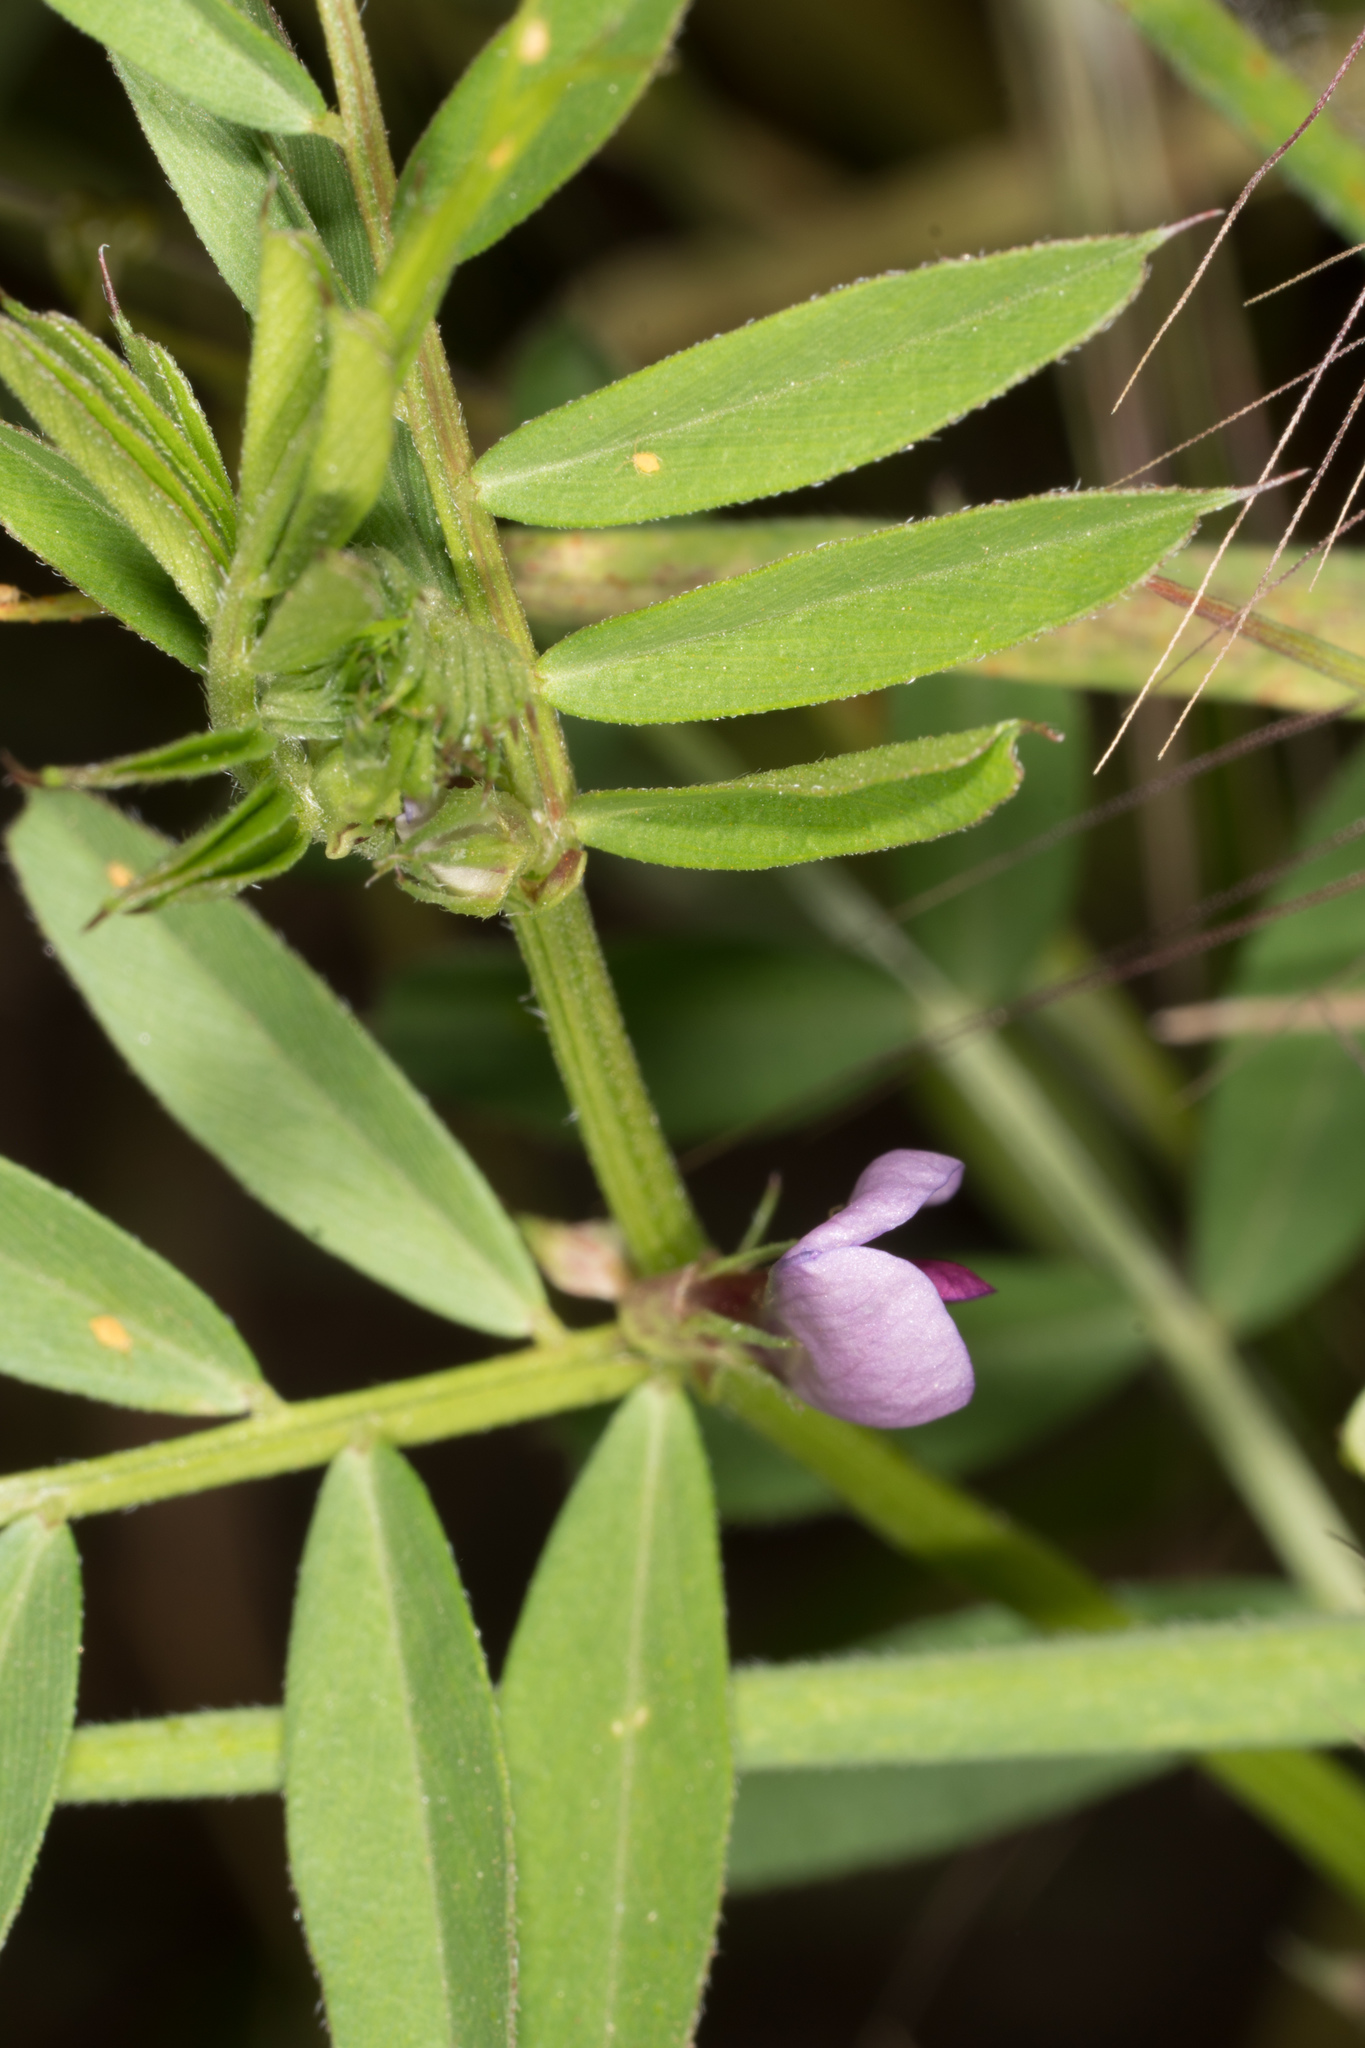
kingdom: Plantae
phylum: Tracheophyta
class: Magnoliopsida
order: Fabales
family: Fabaceae
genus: Vicia
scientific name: Vicia sativa
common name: Garden vetch
